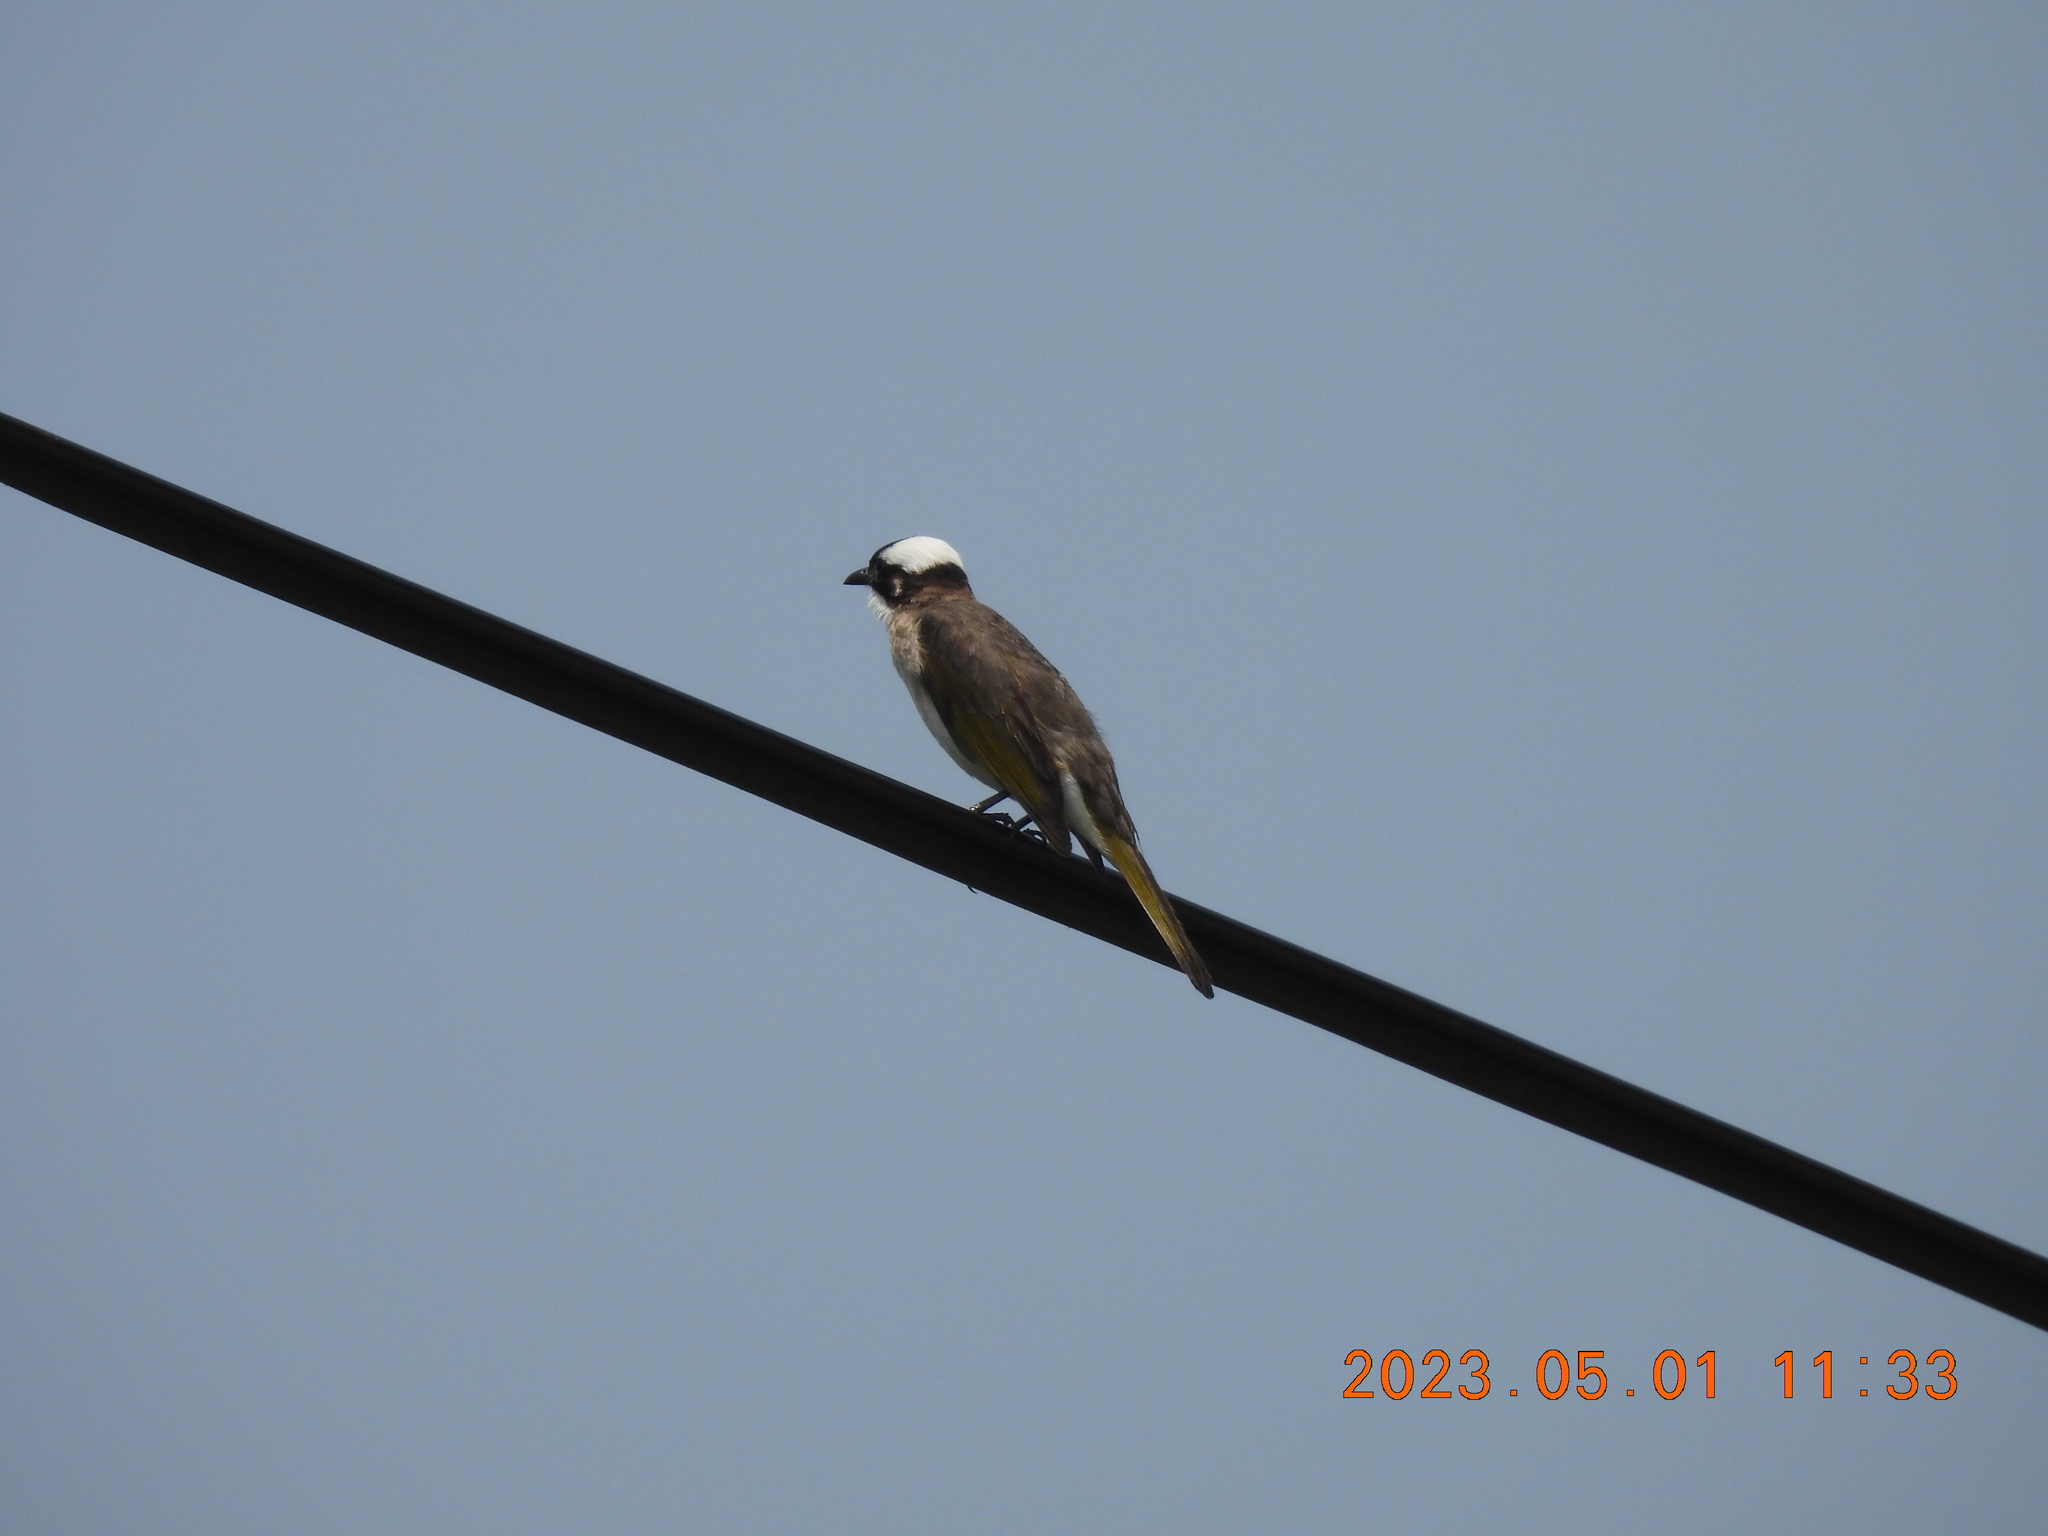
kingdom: Animalia
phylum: Chordata
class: Aves
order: Passeriformes
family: Pycnonotidae
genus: Pycnonotus
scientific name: Pycnonotus sinensis
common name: Light-vented bulbul
